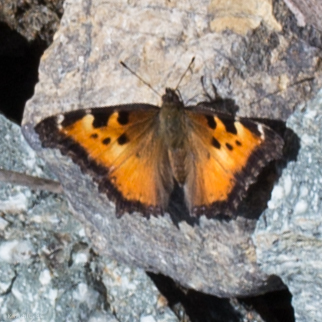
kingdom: Animalia
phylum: Arthropoda
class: Insecta
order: Lepidoptera
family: Nymphalidae
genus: Nymphalis
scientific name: Nymphalis californica
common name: California tortoiseshell
